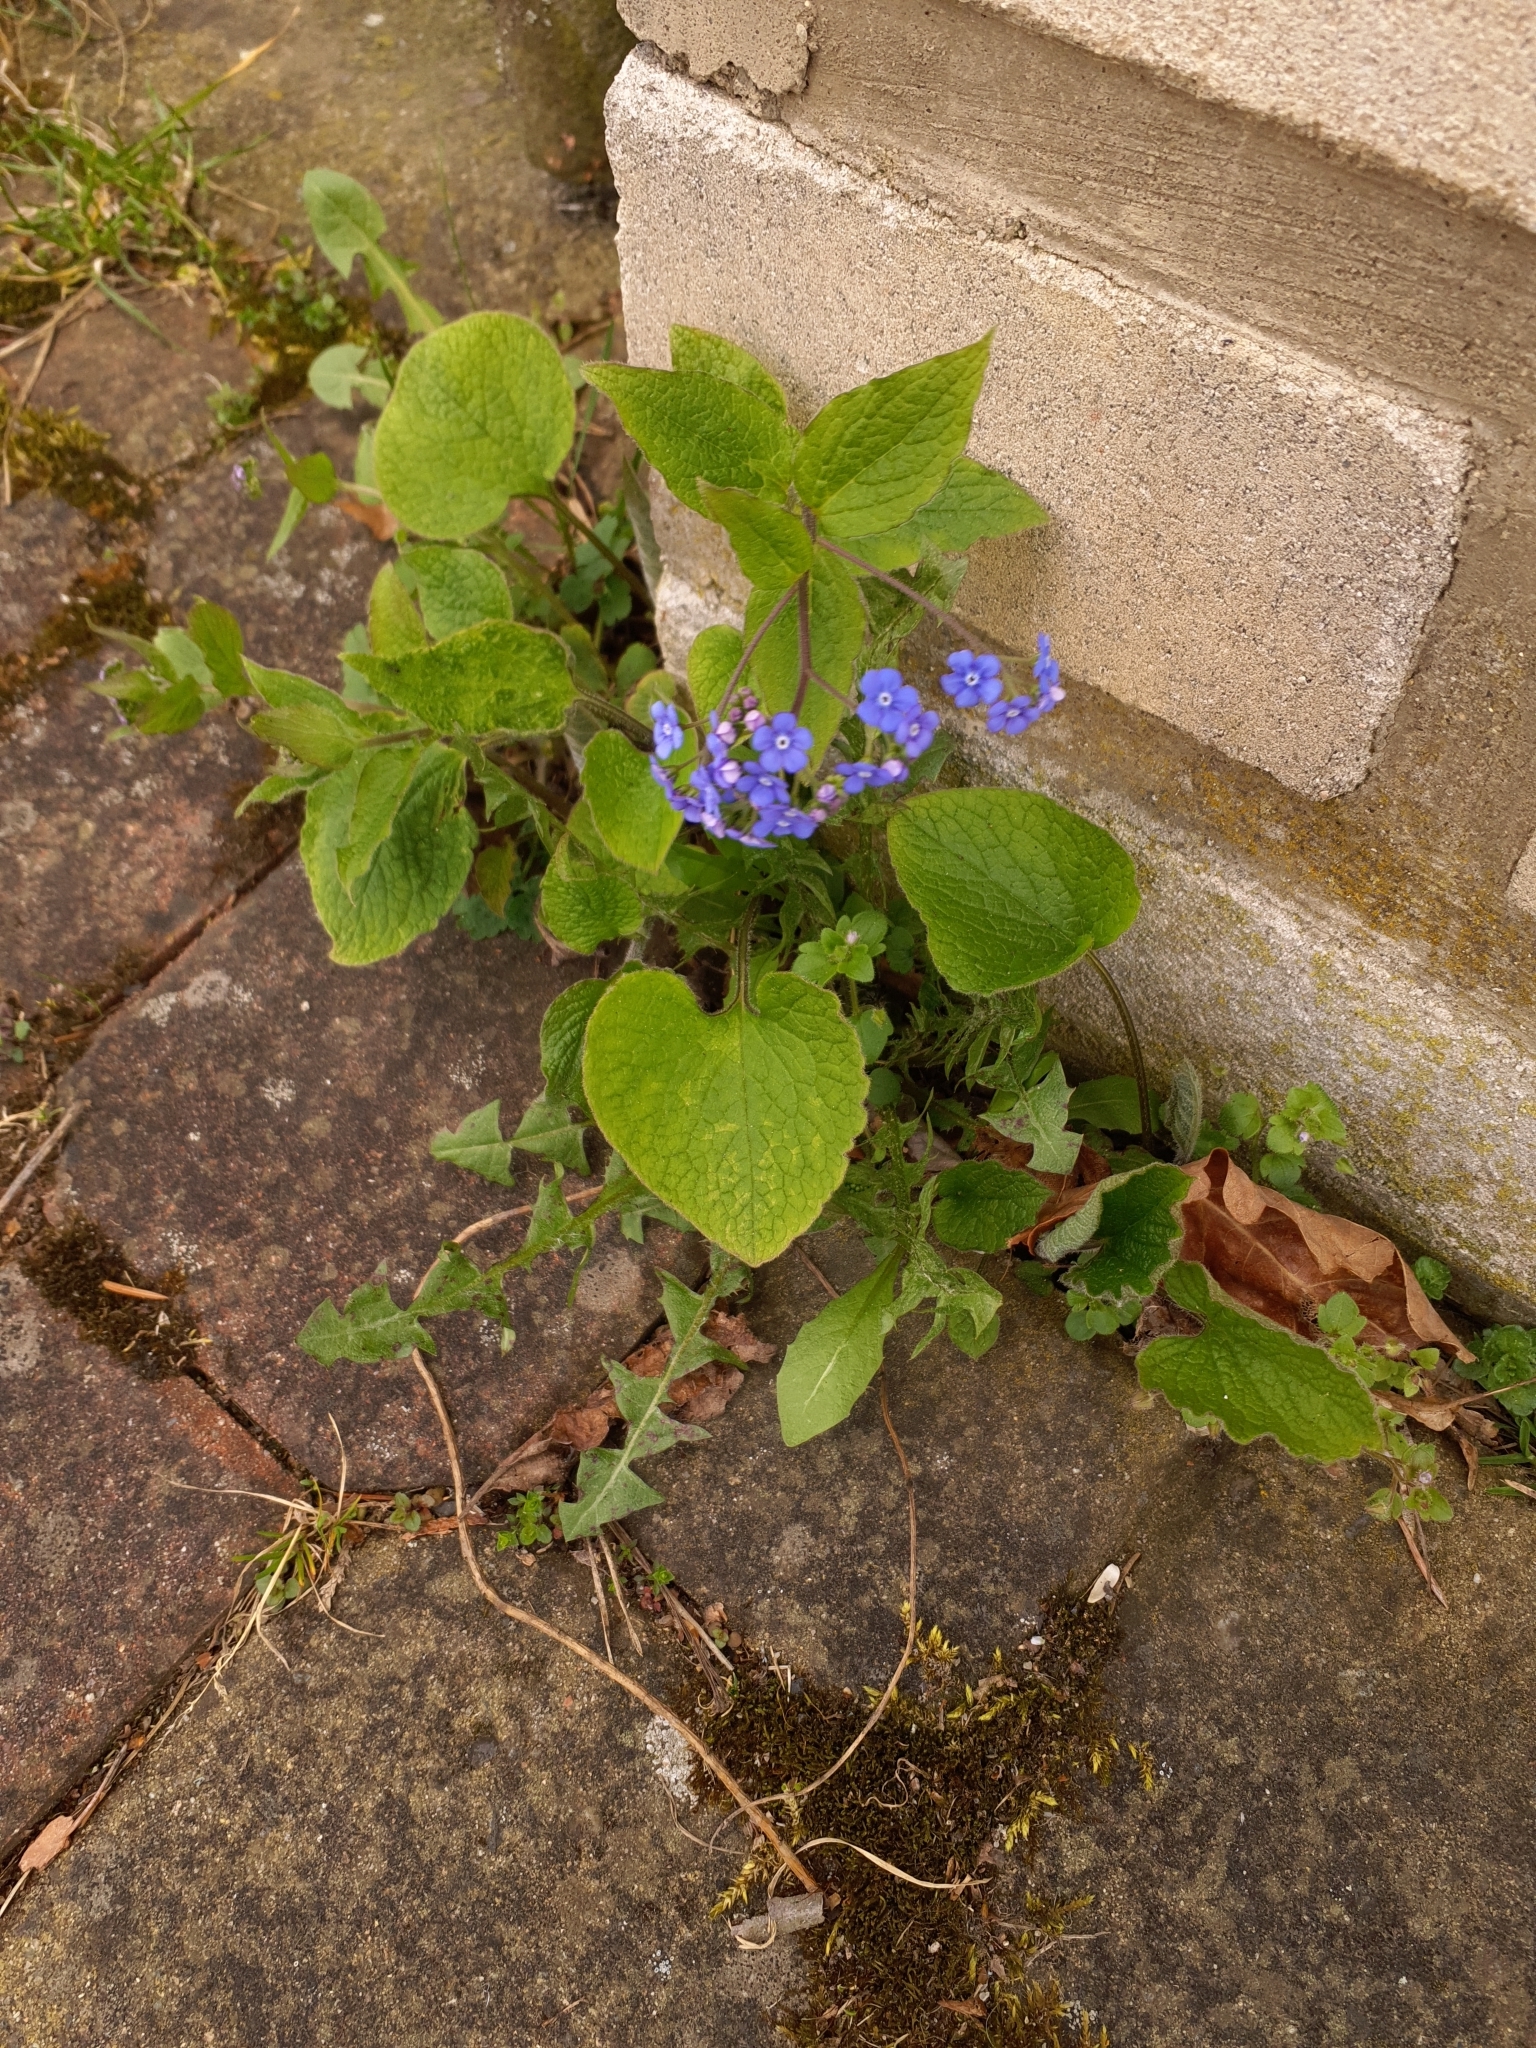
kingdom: Plantae
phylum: Tracheophyta
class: Magnoliopsida
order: Boraginales
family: Boraginaceae
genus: Brunnera
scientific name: Brunnera macrophylla
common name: Great forget-me-not
